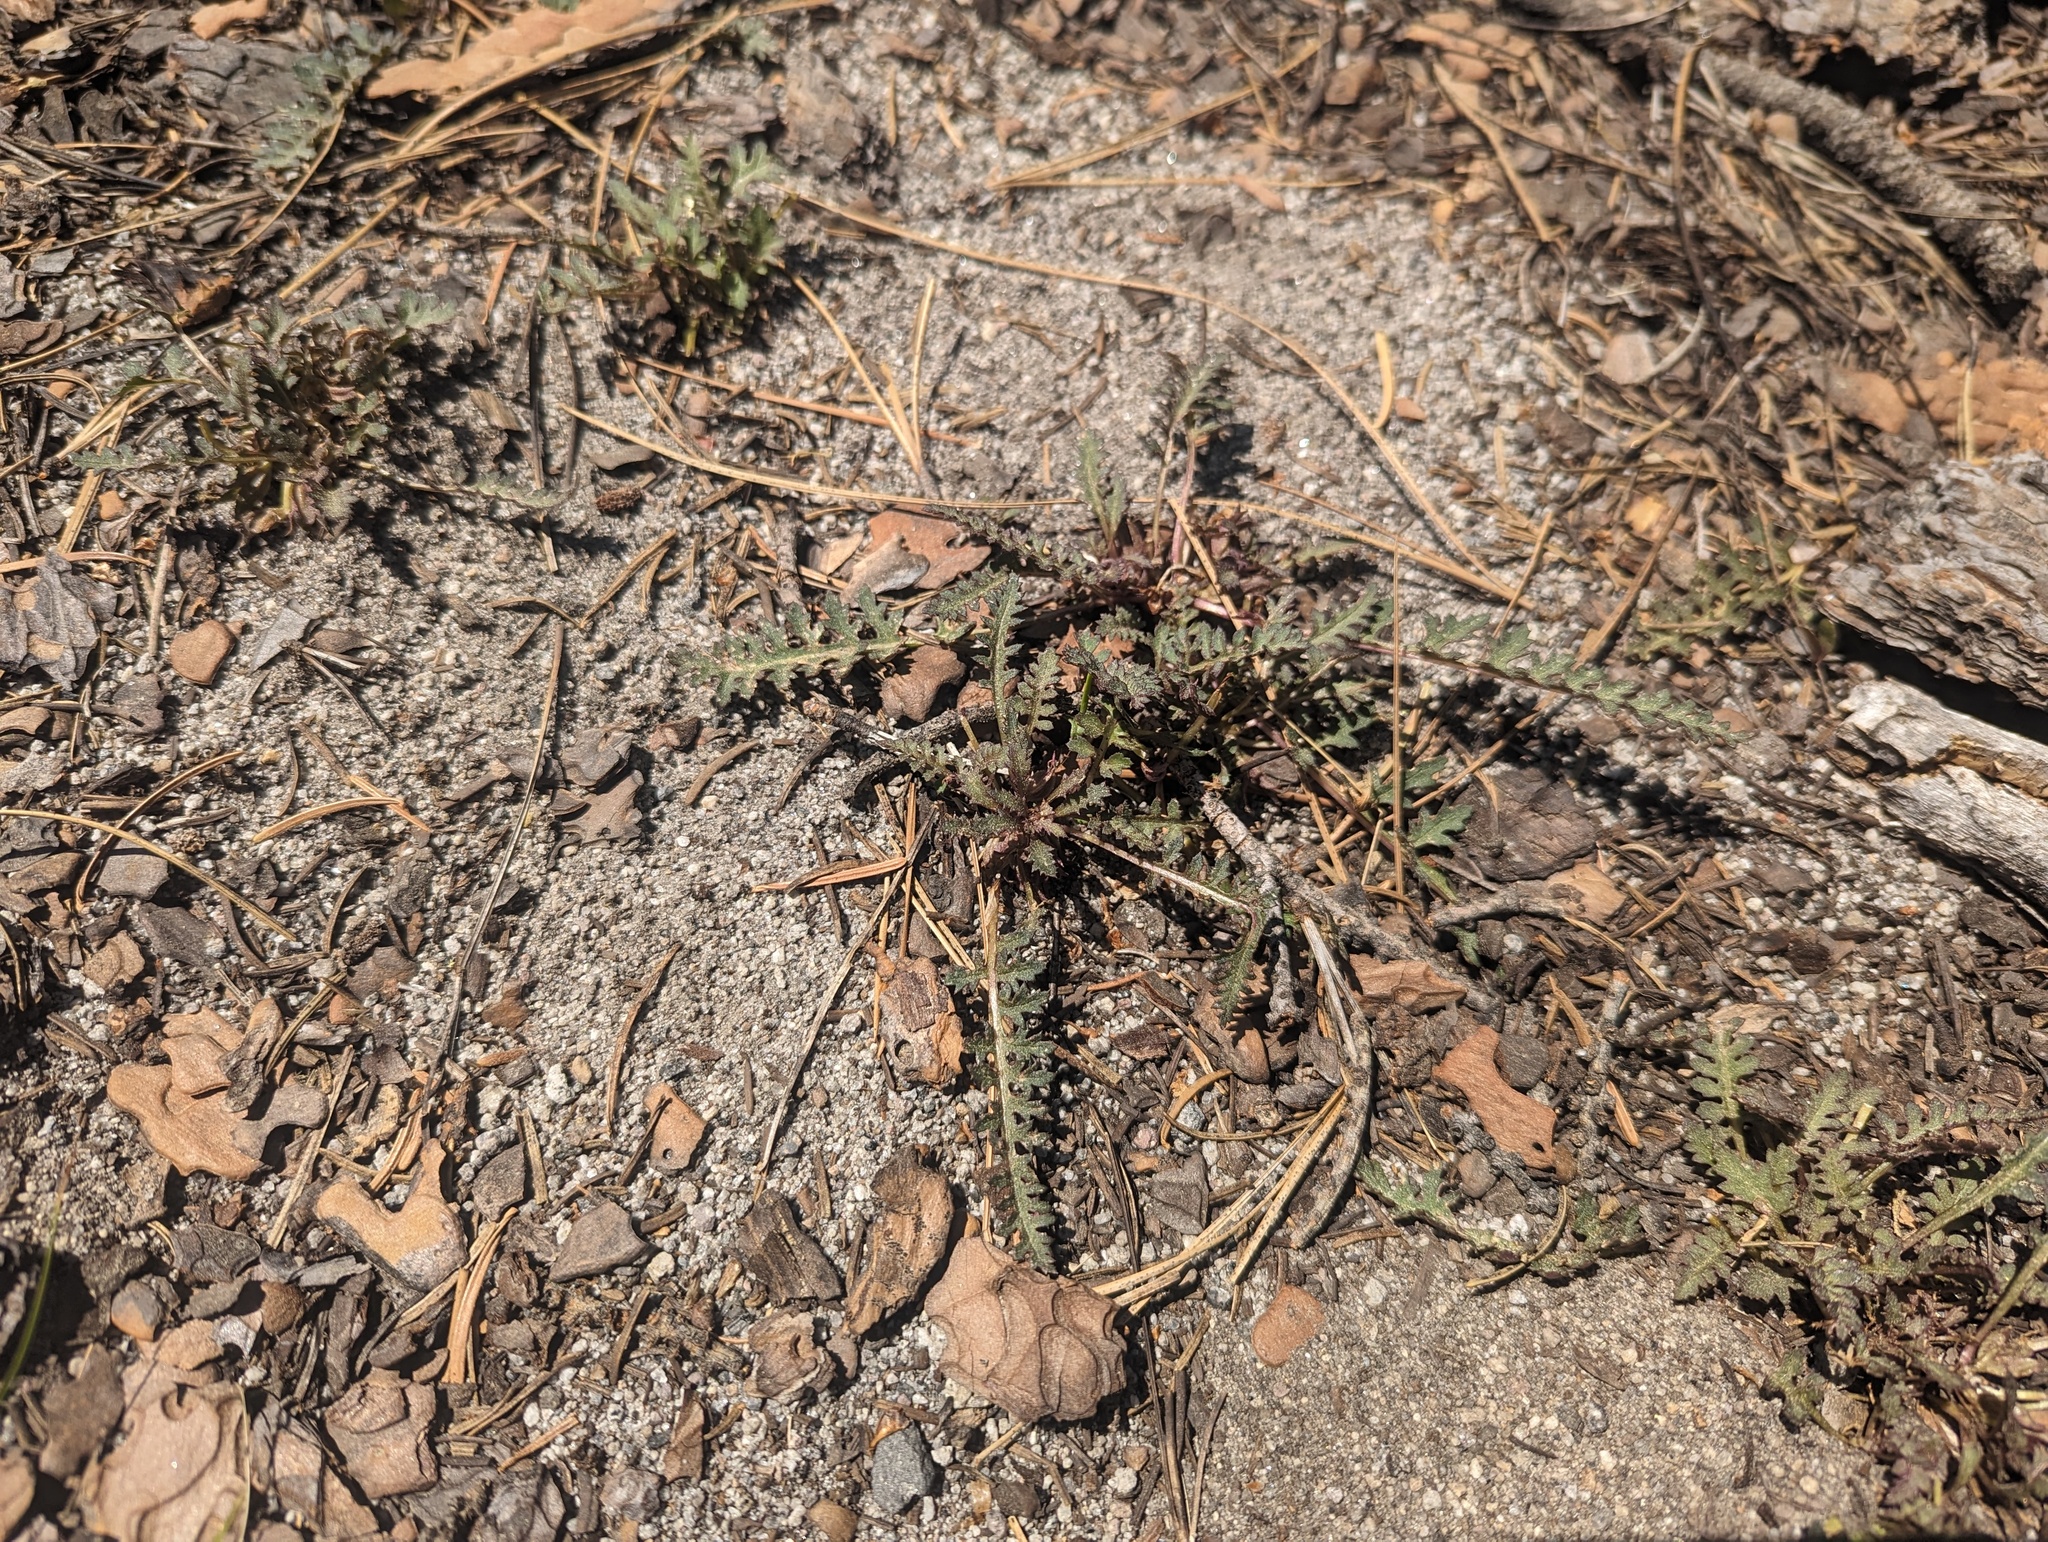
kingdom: Plantae
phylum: Tracheophyta
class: Magnoliopsida
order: Lamiales
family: Orobanchaceae
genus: Pedicularis
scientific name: Pedicularis semibarbata
